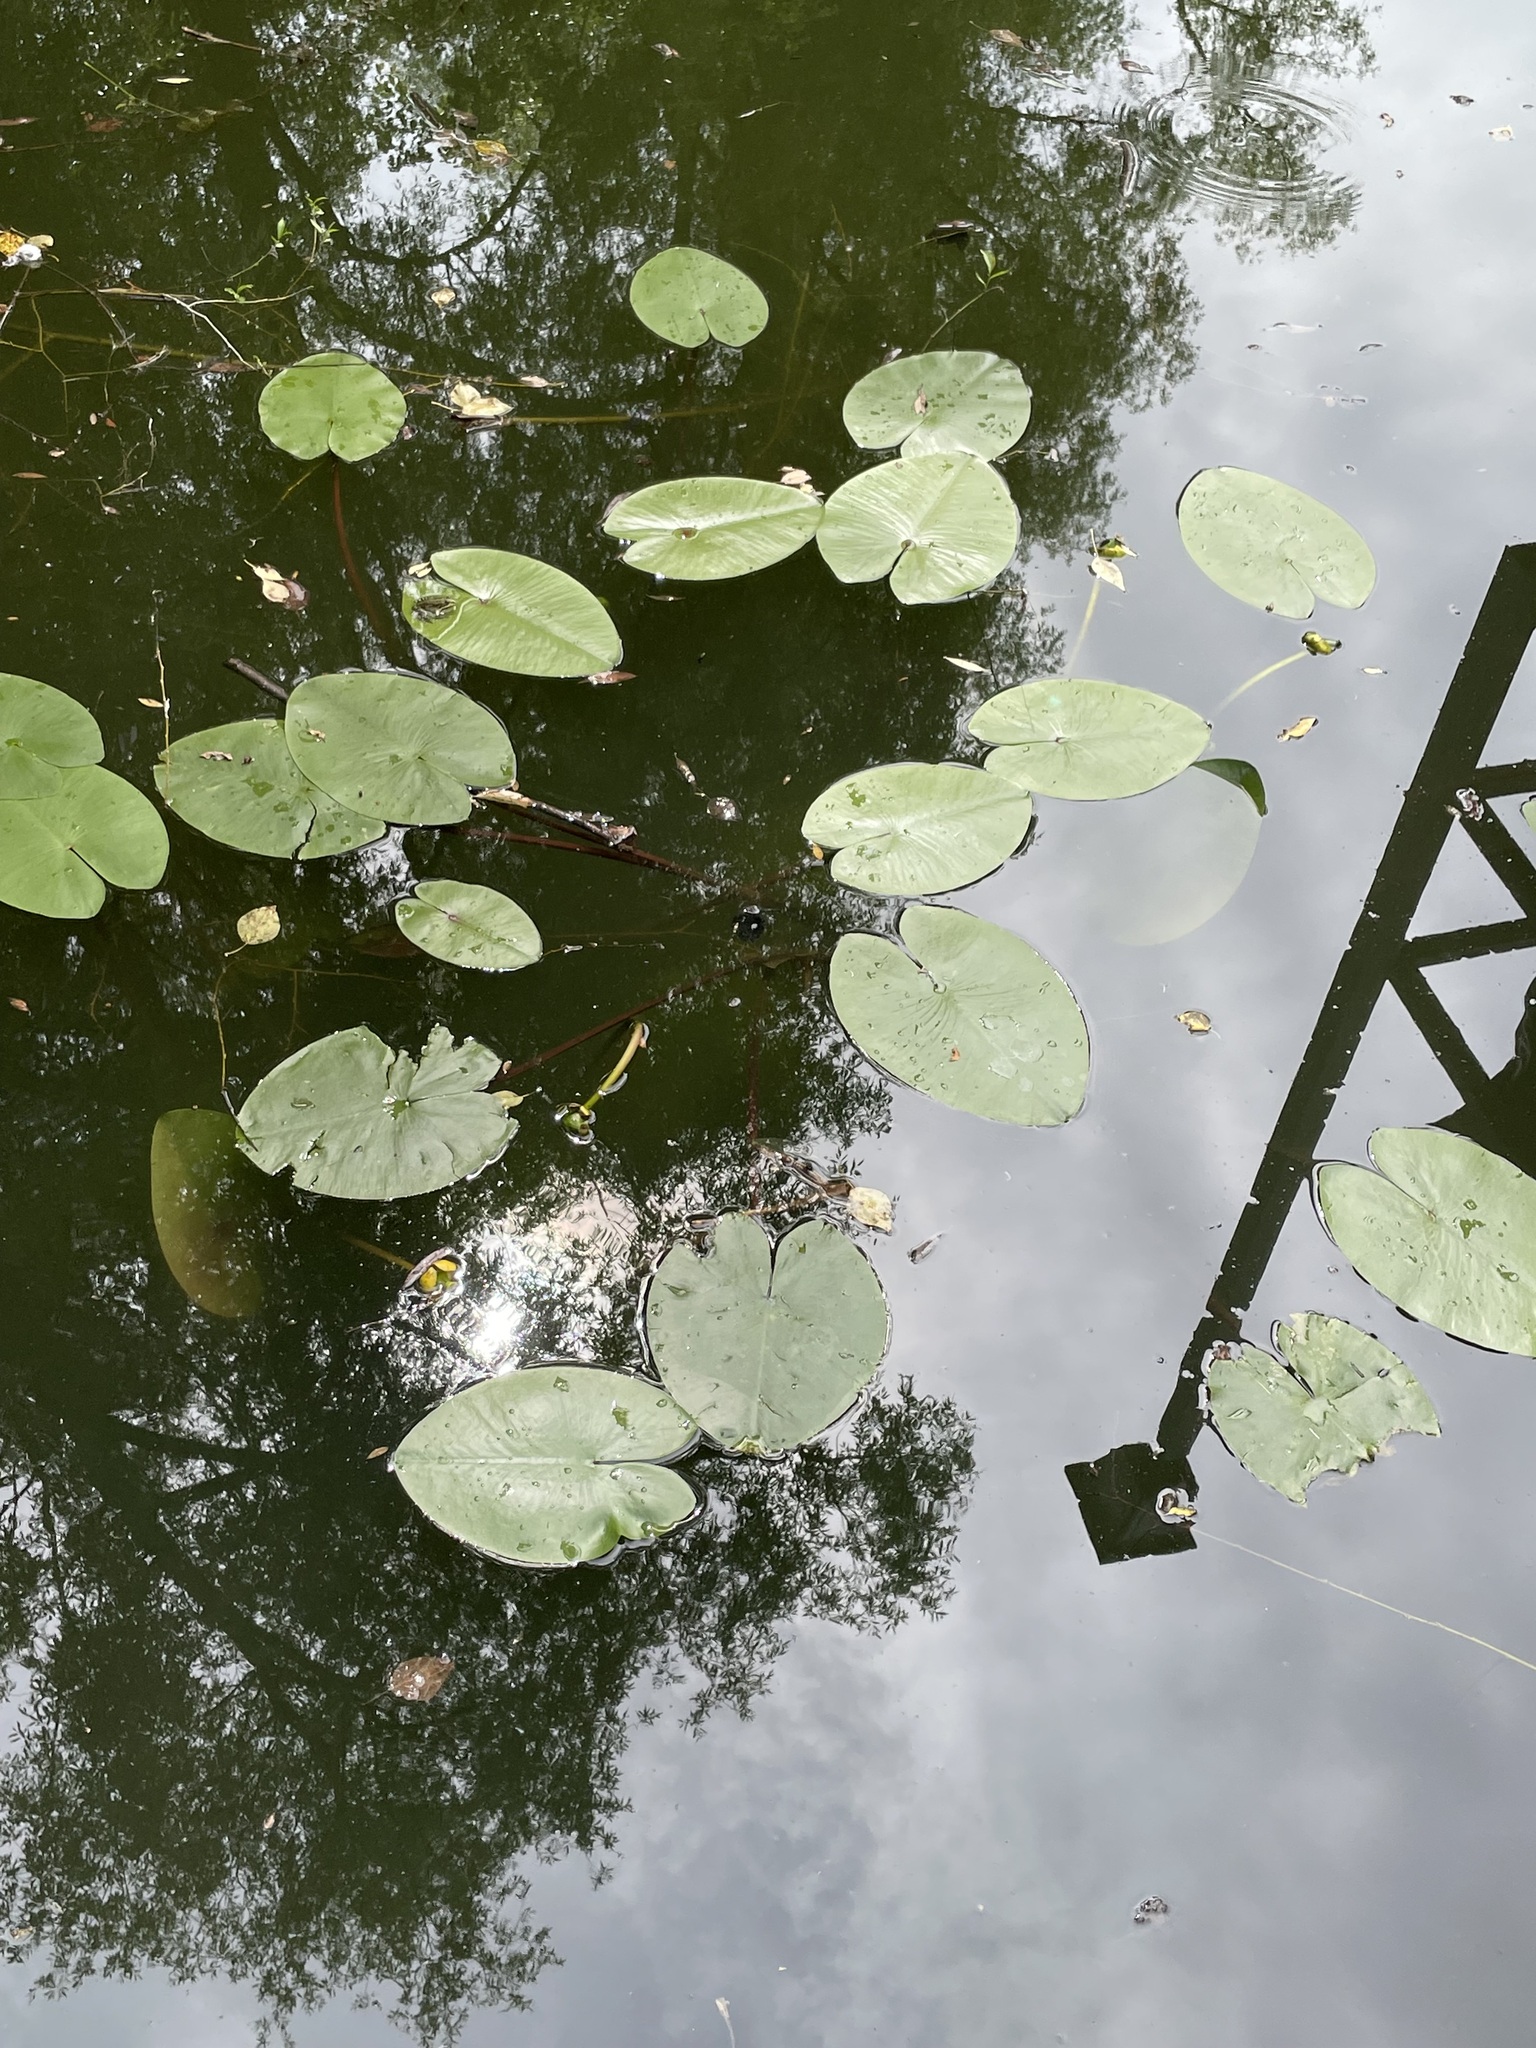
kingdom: Plantae
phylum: Tracheophyta
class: Magnoliopsida
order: Nymphaeales
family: Nymphaeaceae
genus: Nuphar
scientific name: Nuphar lutea
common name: Yellow water-lily
